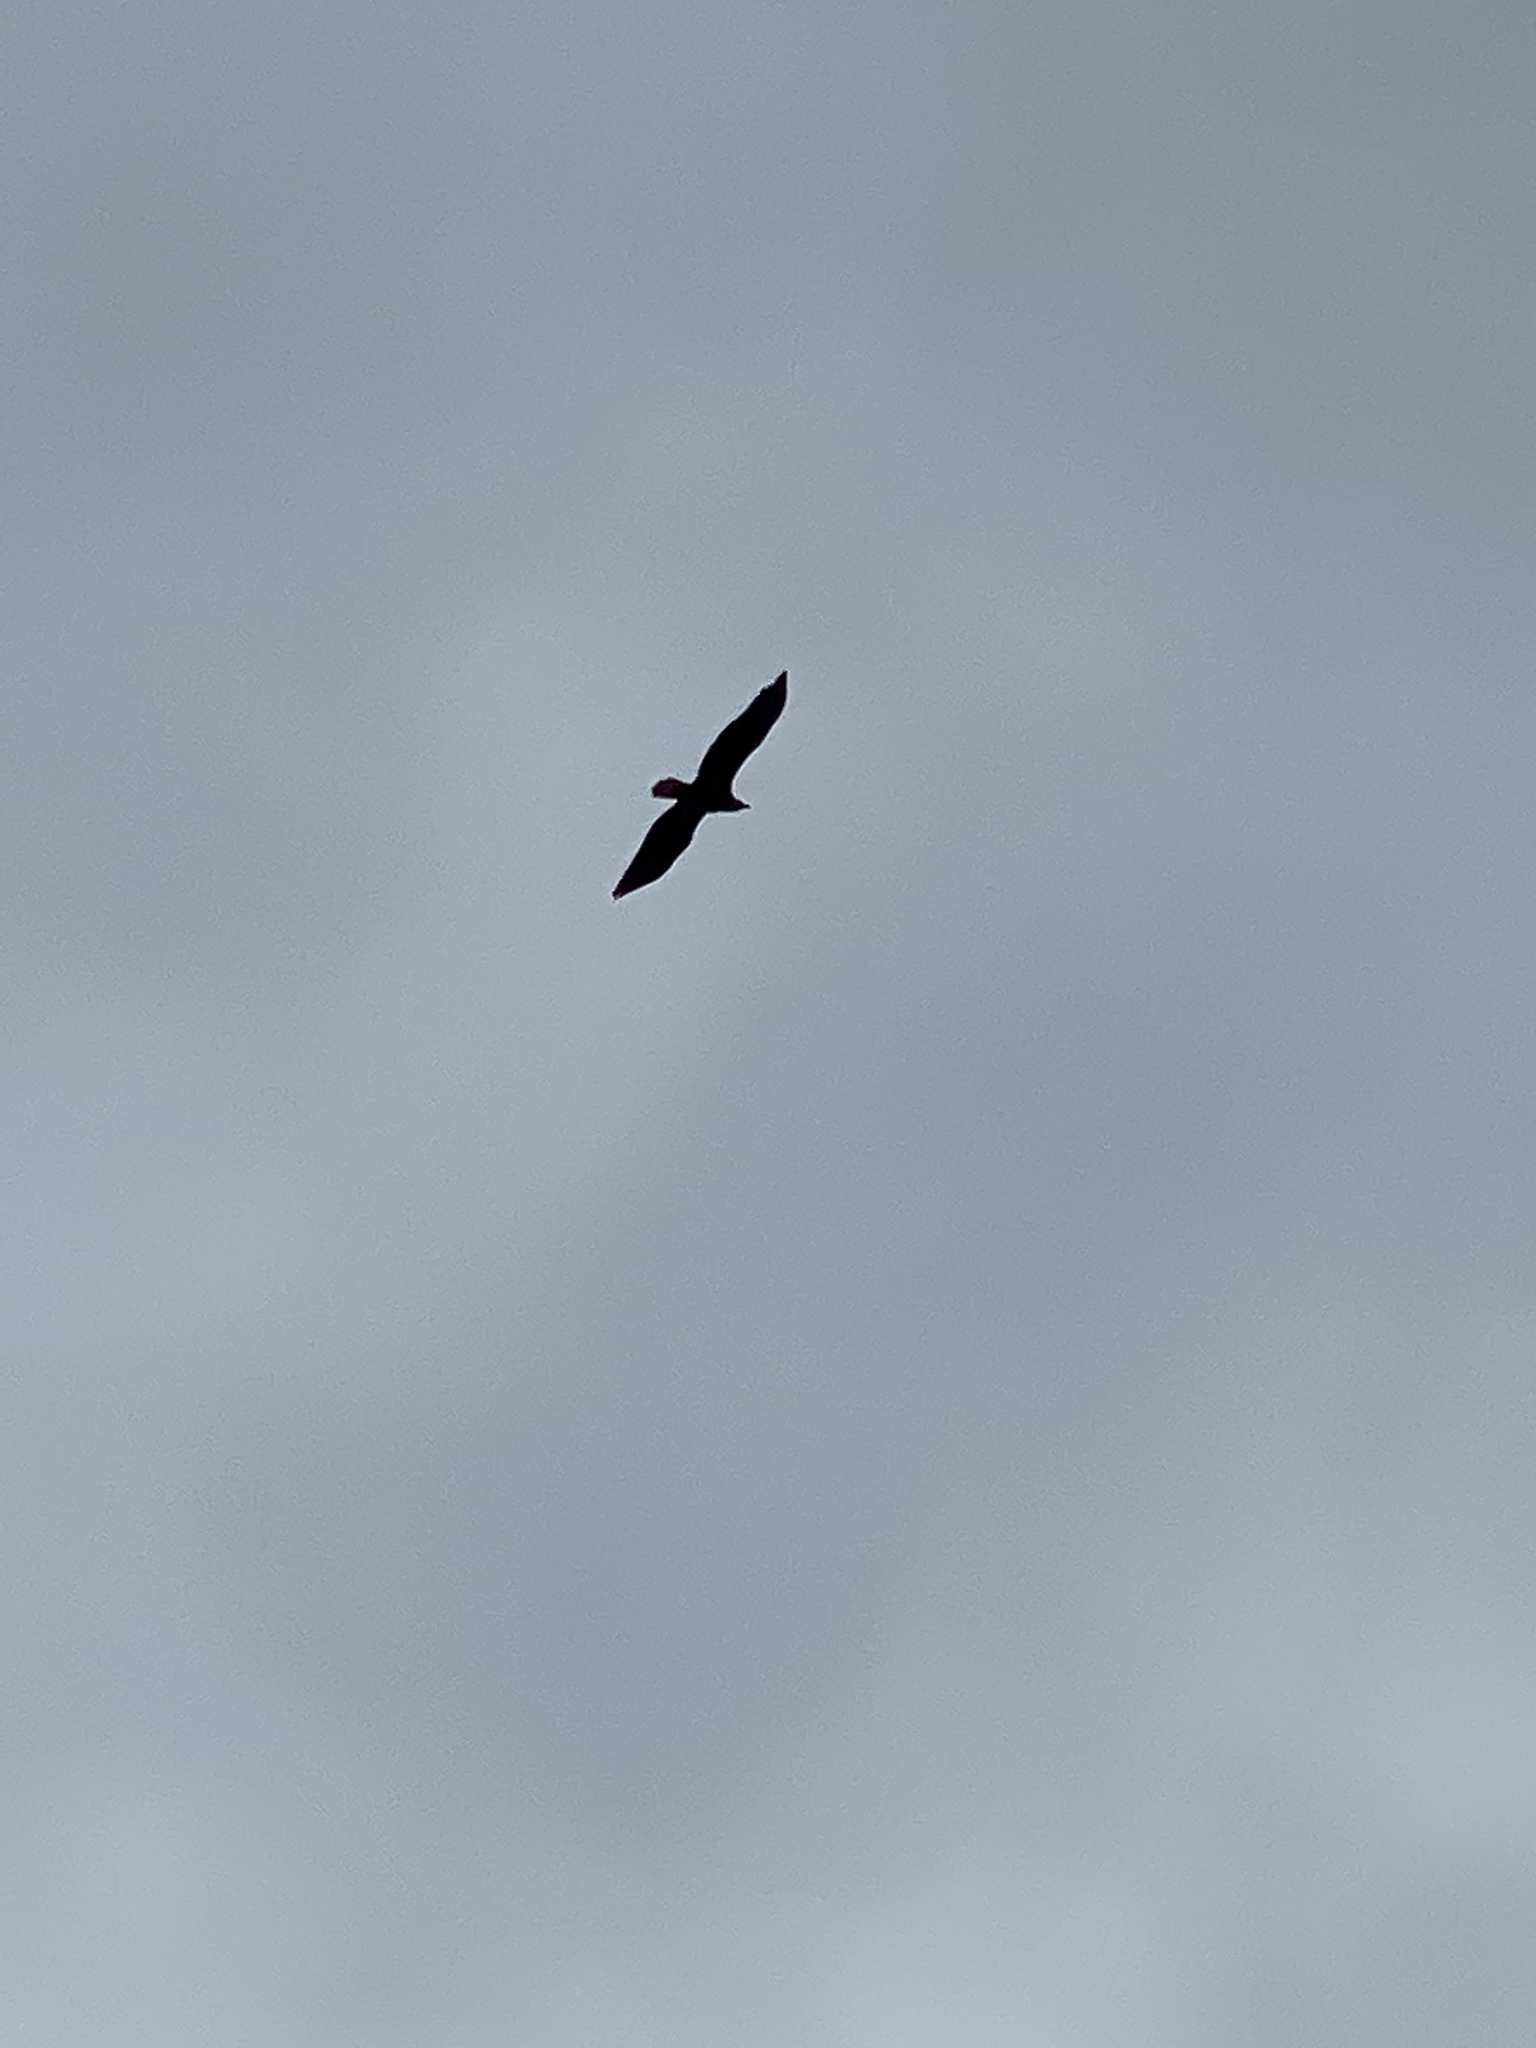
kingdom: Animalia
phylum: Chordata
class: Aves
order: Accipitriformes
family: Accipitridae
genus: Haliaeetus
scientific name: Haliaeetus leucocephalus
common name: Bald eagle
